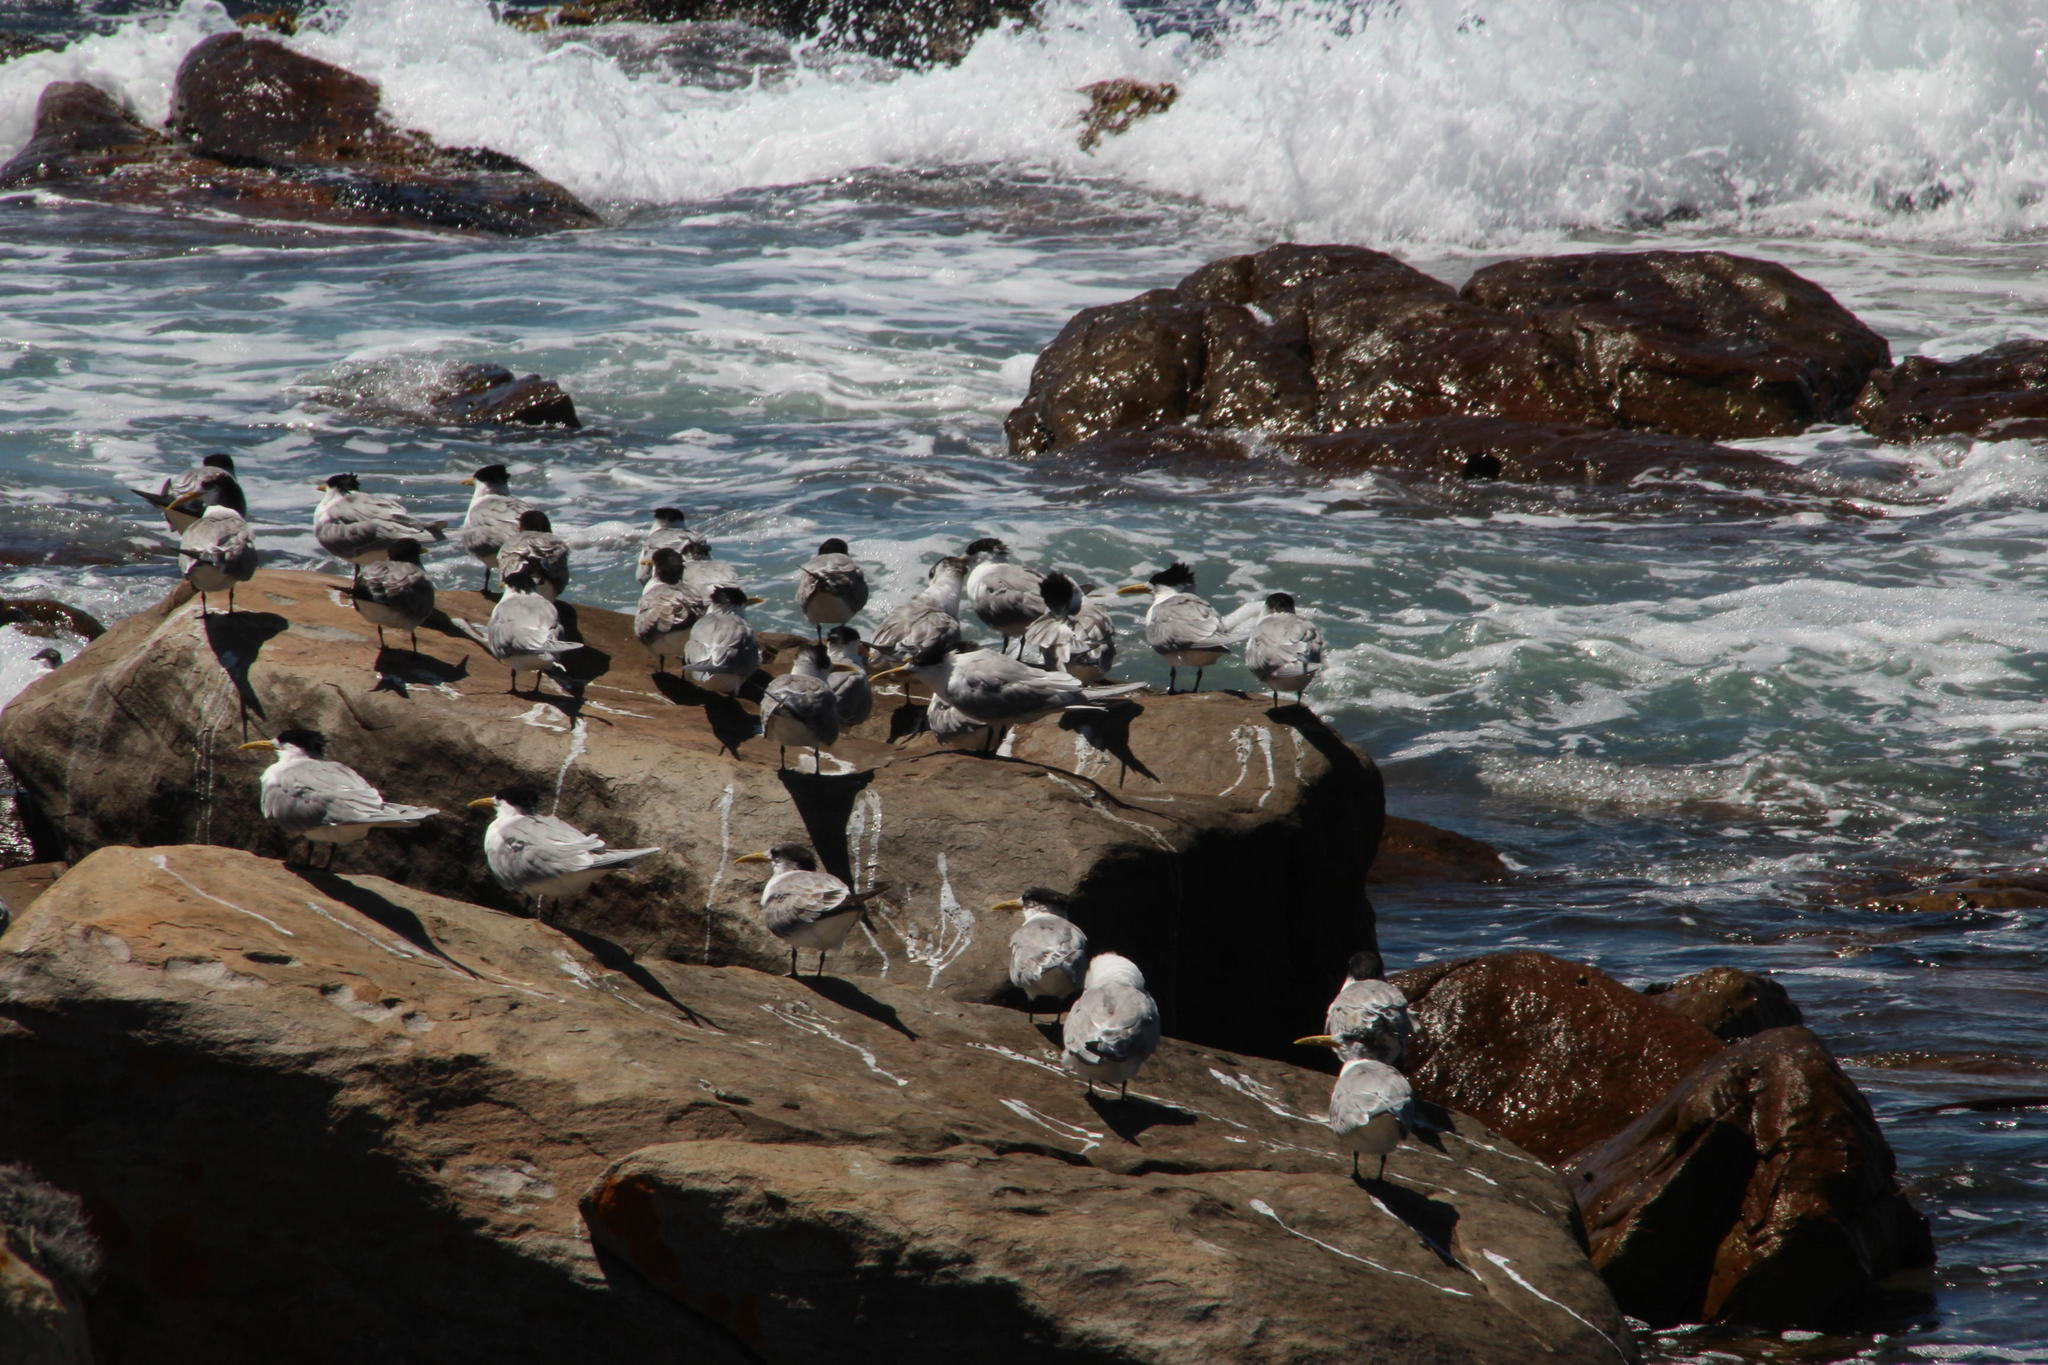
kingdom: Animalia
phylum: Chordata
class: Aves
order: Charadriiformes
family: Laridae
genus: Thalasseus
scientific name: Thalasseus bergii
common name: Greater crested tern
